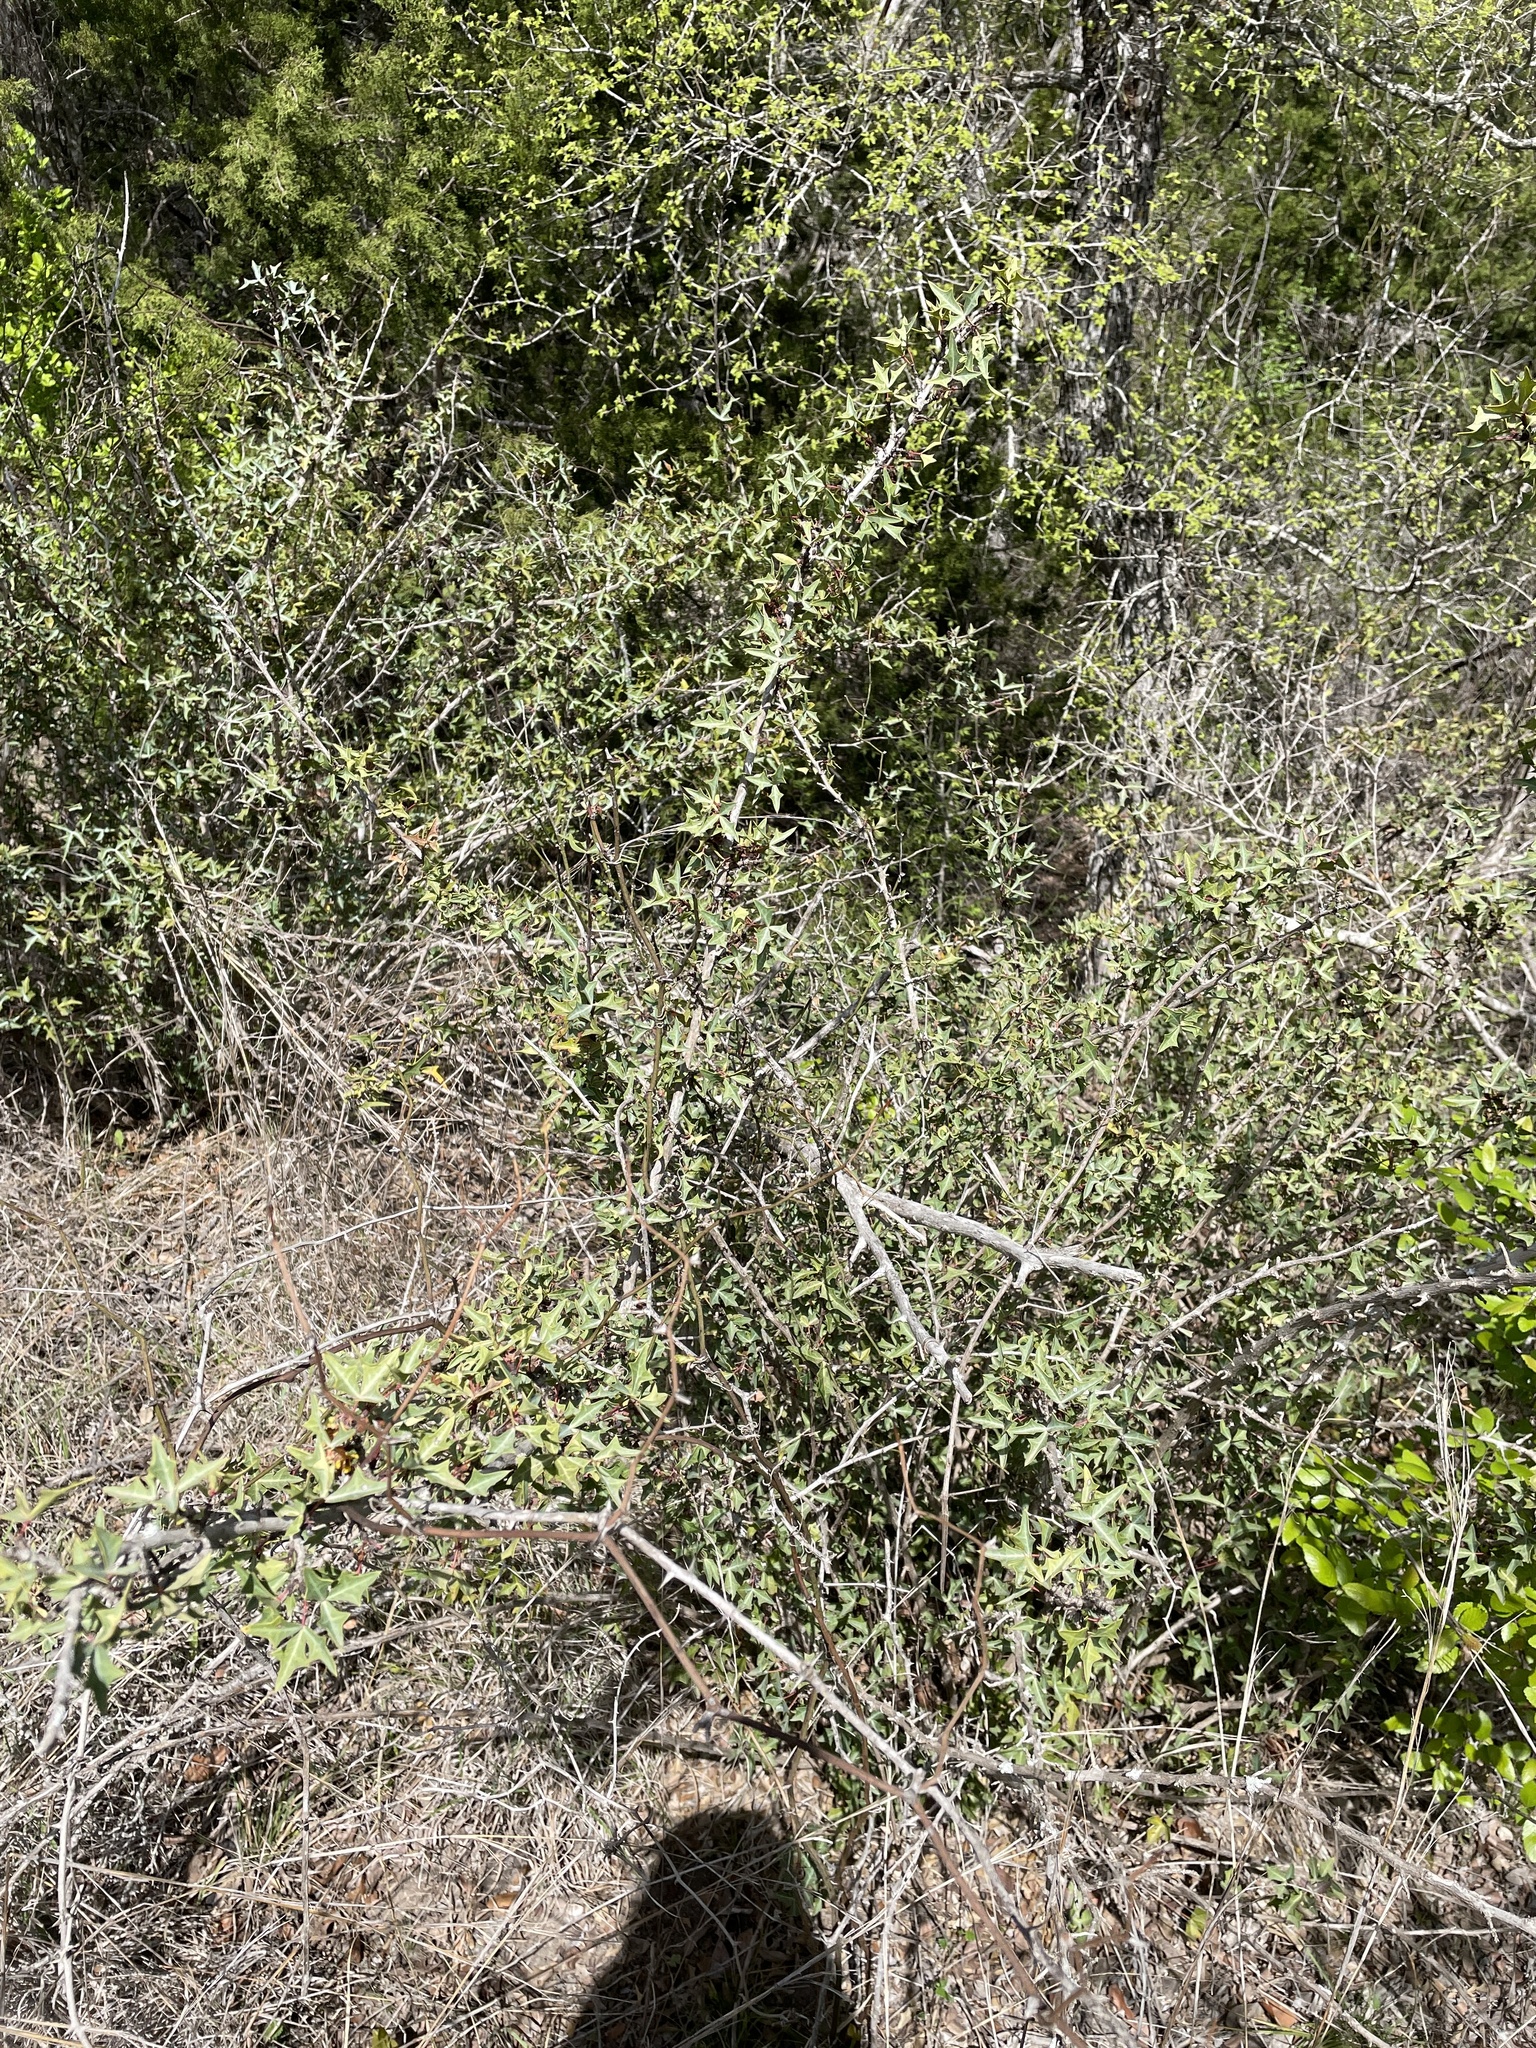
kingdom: Plantae
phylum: Tracheophyta
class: Magnoliopsida
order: Ranunculales
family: Berberidaceae
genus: Alloberberis
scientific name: Alloberberis trifoliolata
